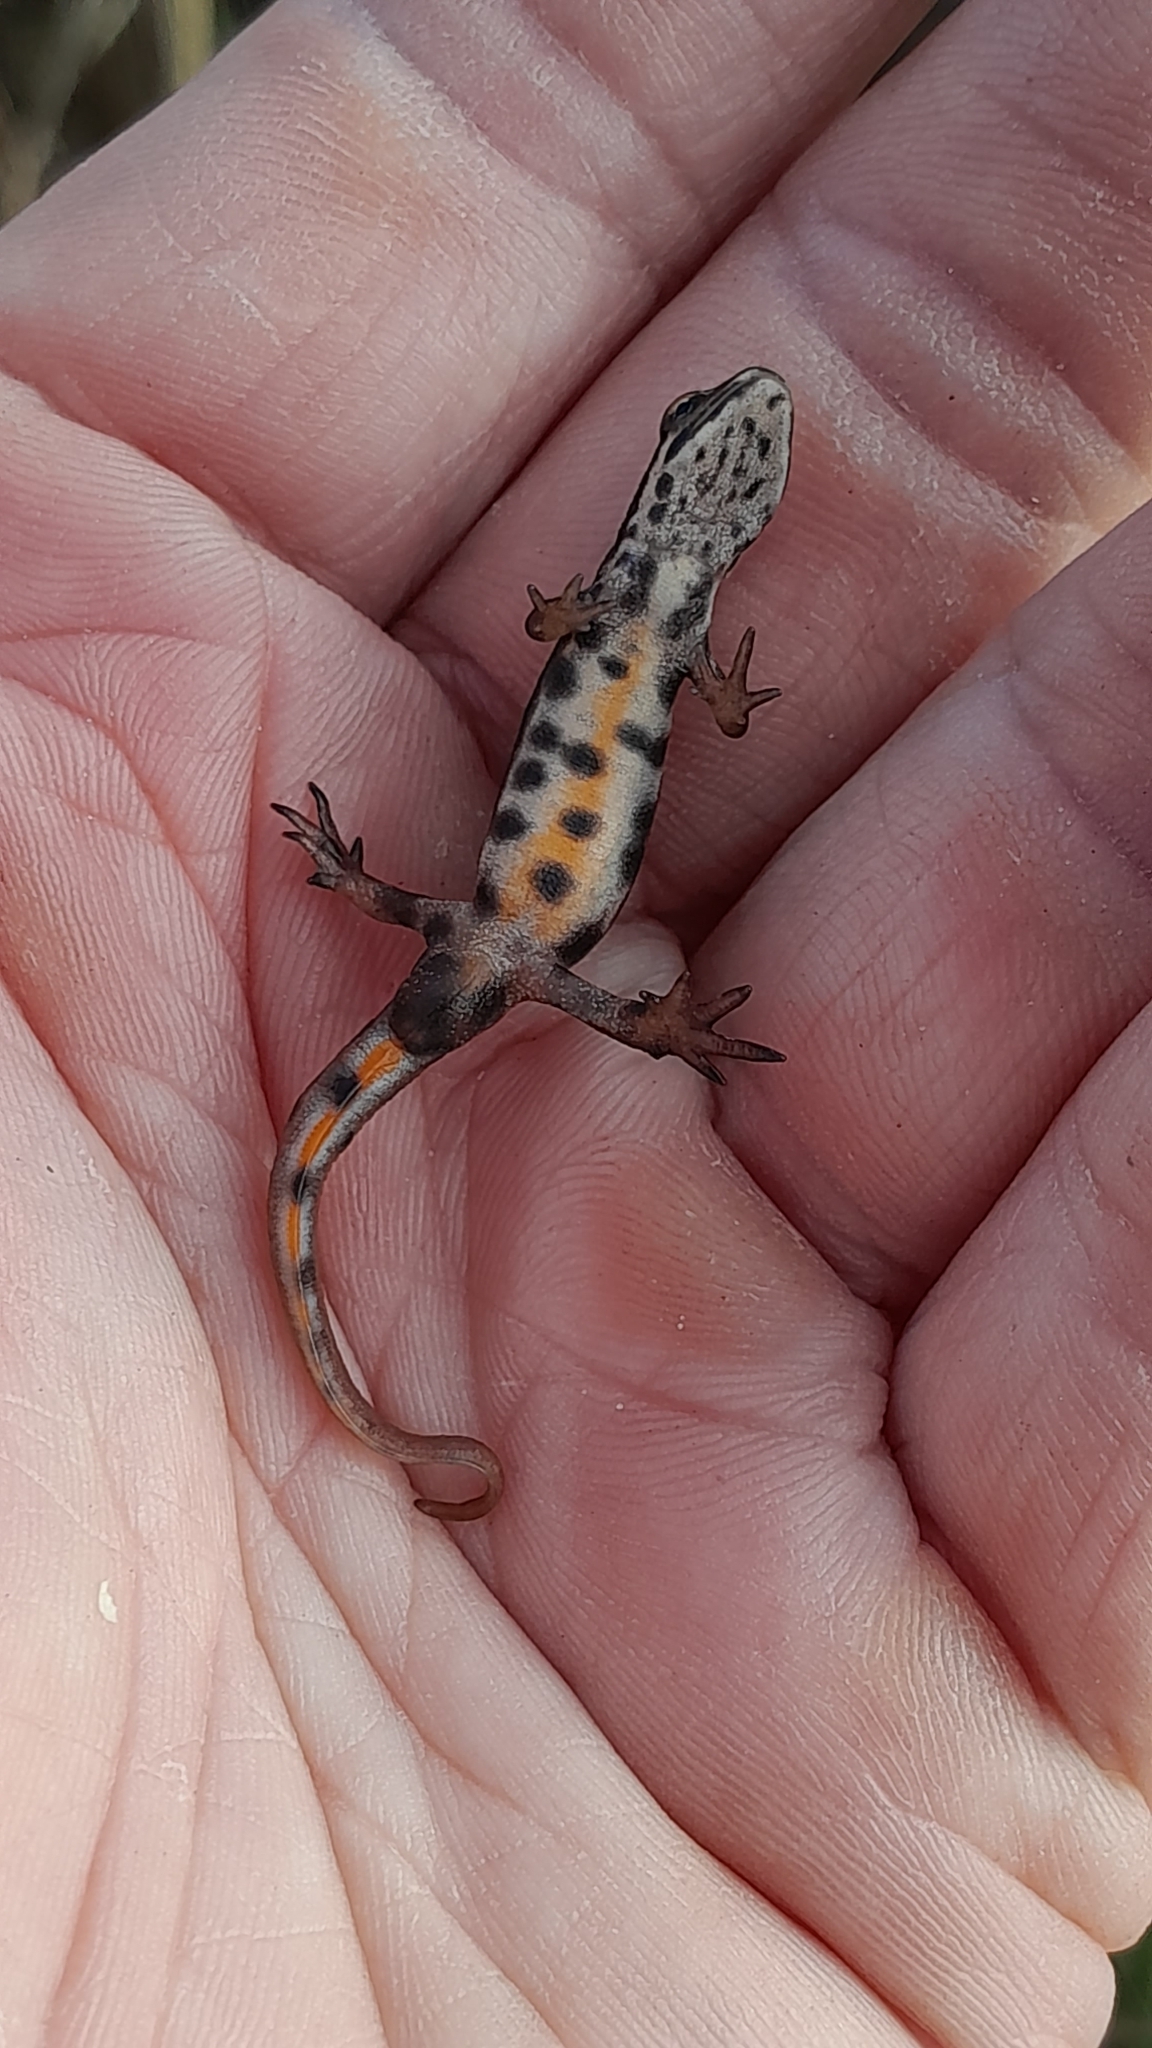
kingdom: Animalia
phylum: Chordata
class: Amphibia
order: Caudata
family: Salamandridae
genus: Lissotriton
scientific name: Lissotriton vulgaris
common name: Smooth newt
